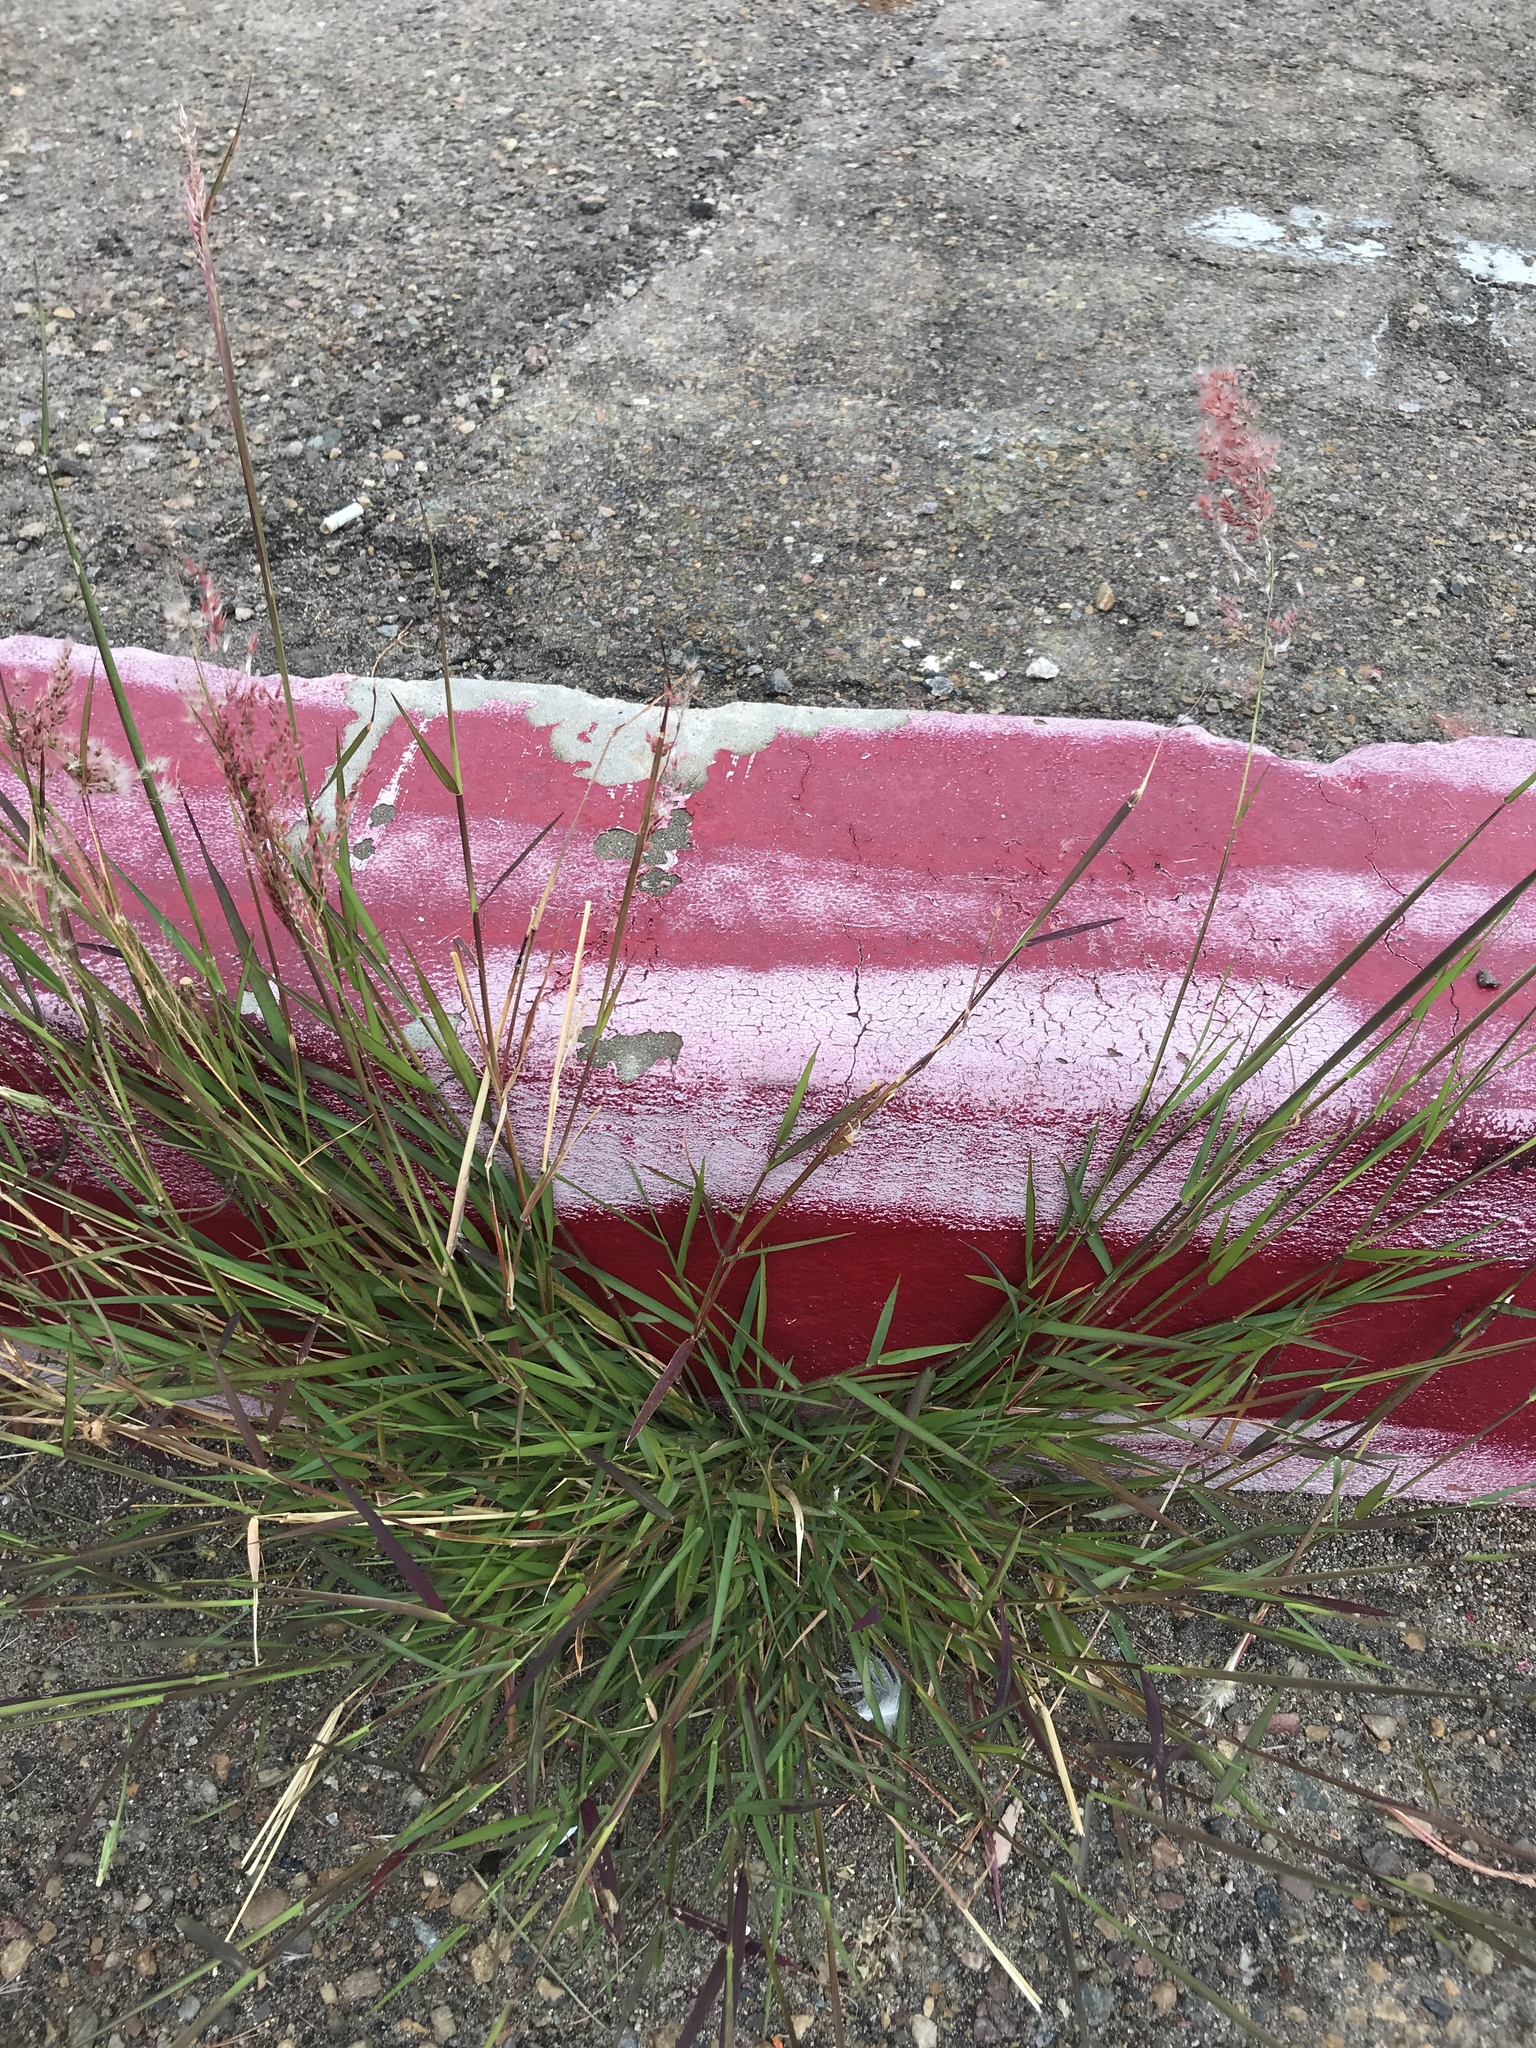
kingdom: Plantae
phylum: Tracheophyta
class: Liliopsida
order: Poales
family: Poaceae
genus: Melinis
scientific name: Melinis repens
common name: Rose natal grass
